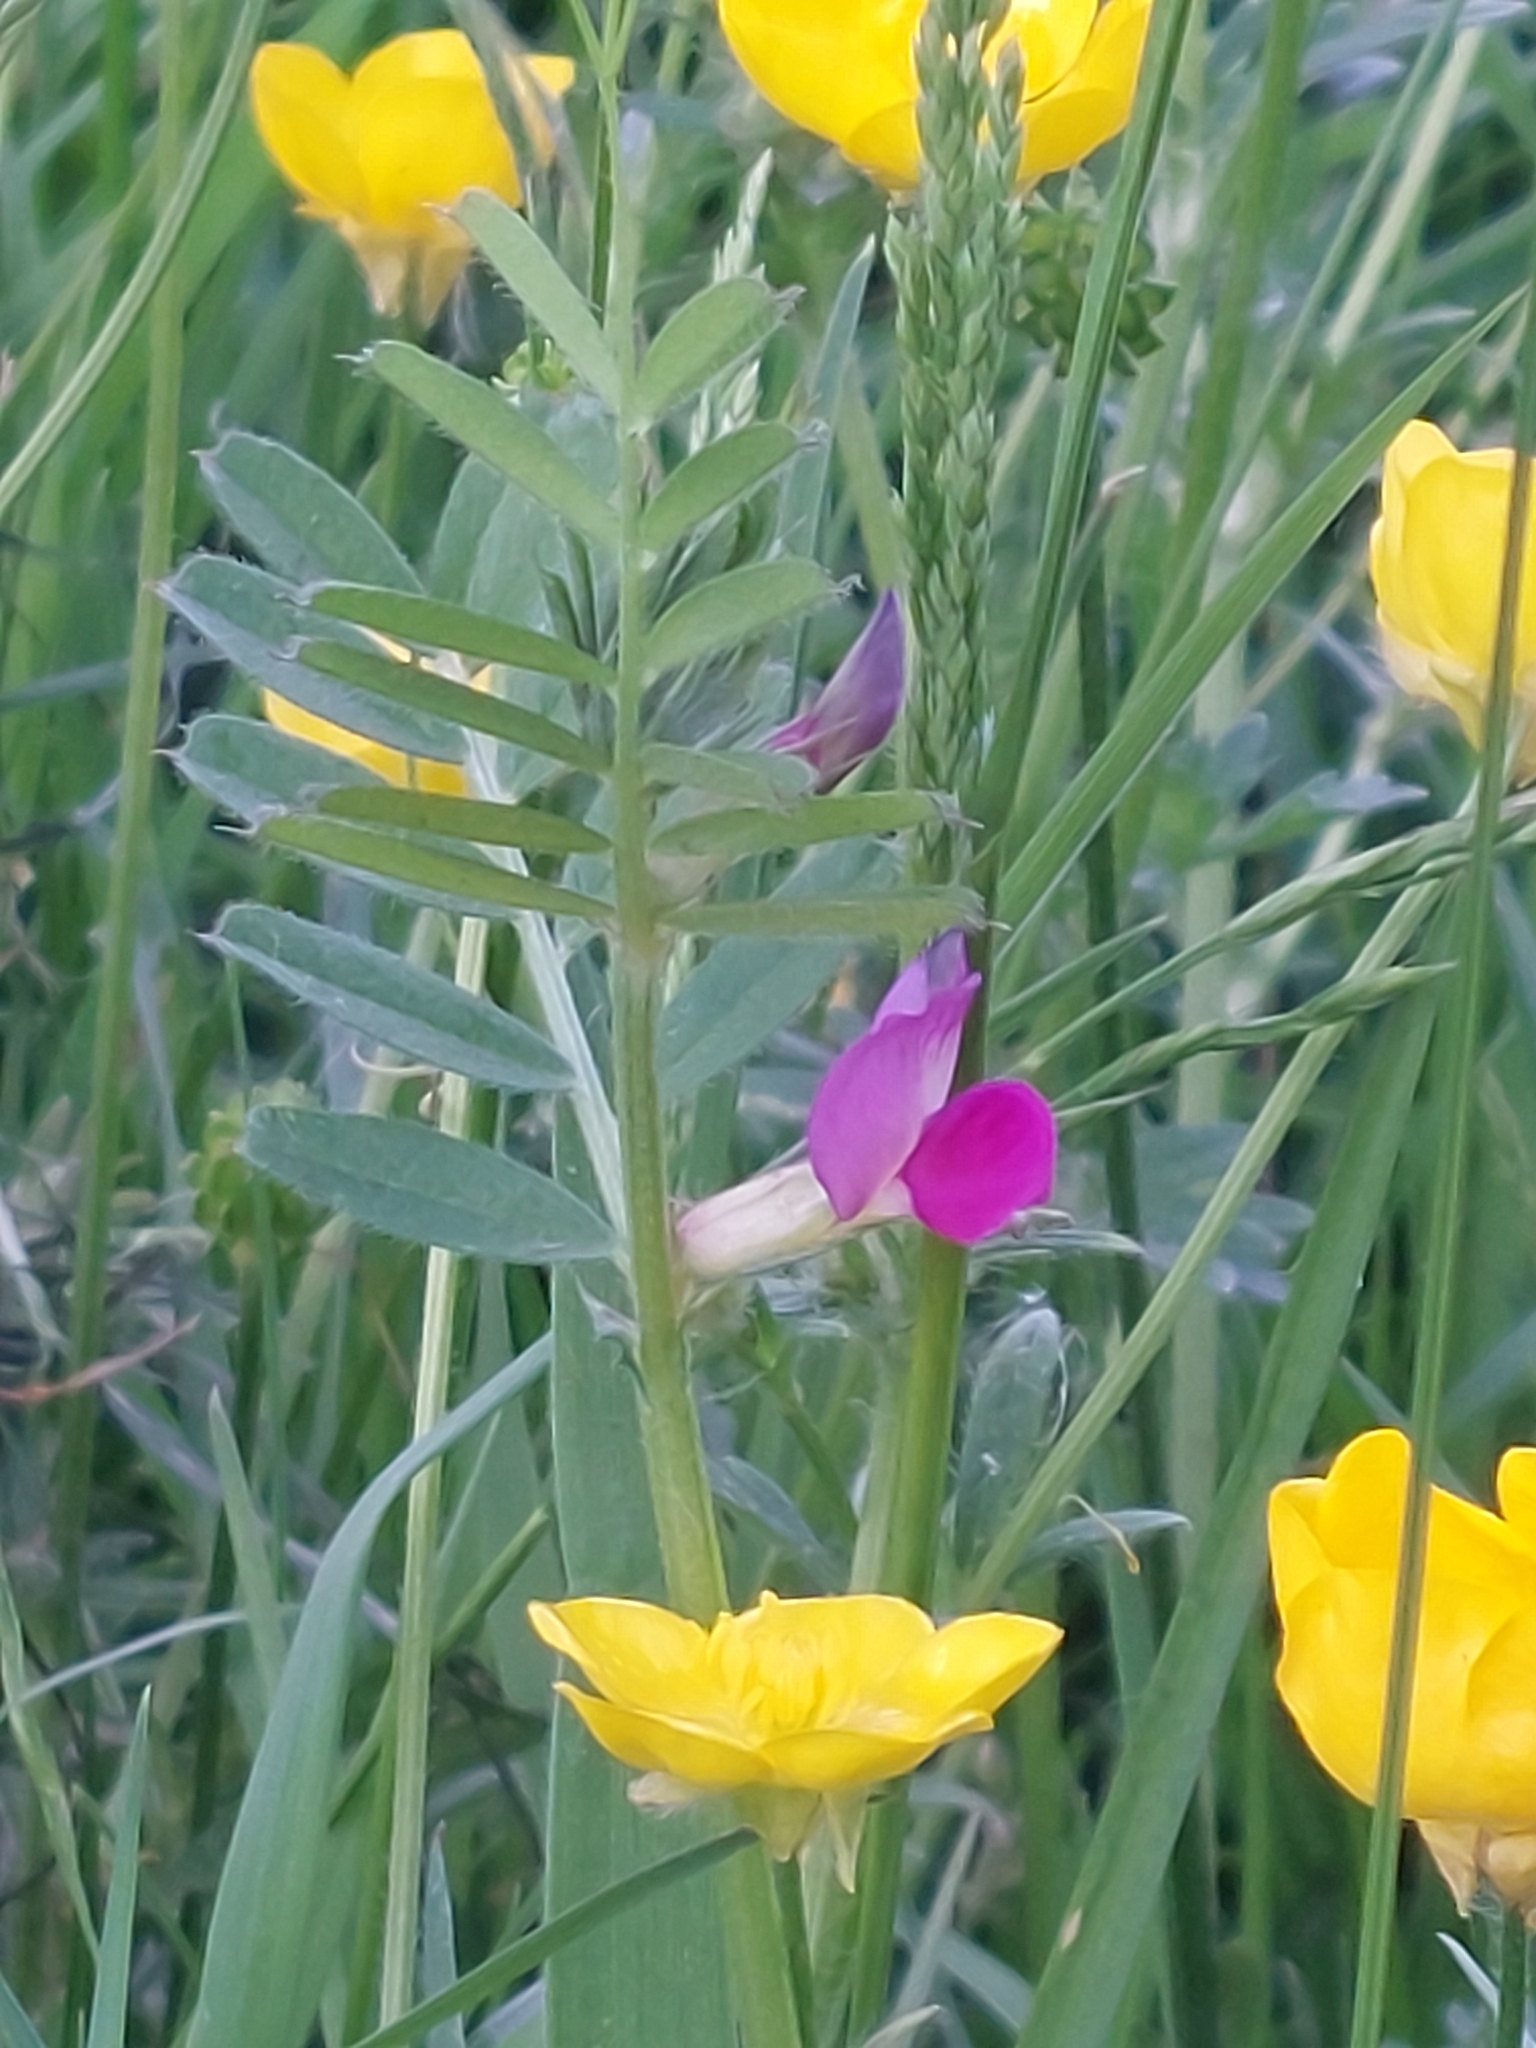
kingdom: Plantae
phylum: Tracheophyta
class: Magnoliopsida
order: Fabales
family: Fabaceae
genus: Vicia
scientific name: Vicia sativa
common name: Garden vetch
